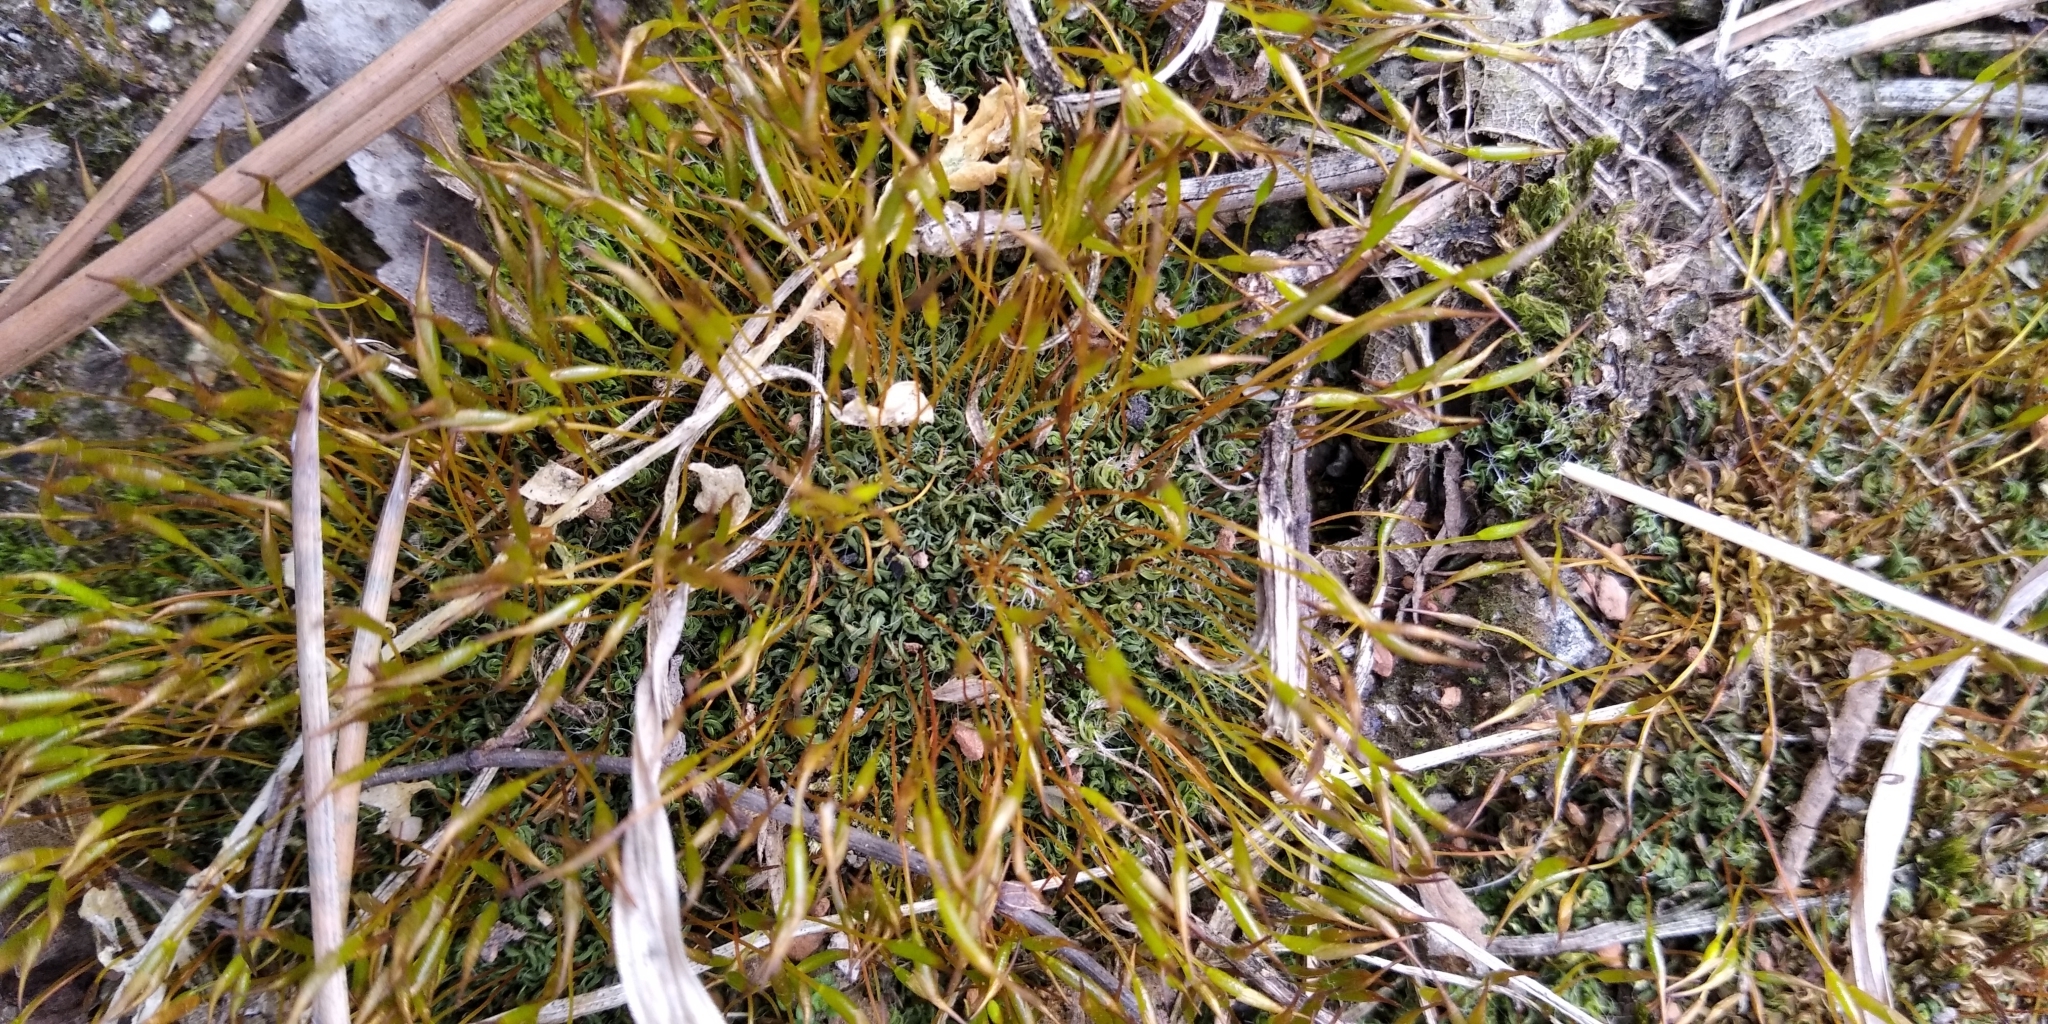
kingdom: Plantae
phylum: Bryophyta
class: Bryopsida
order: Pottiales
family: Pottiaceae
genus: Tortula
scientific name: Tortula muralis
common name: Wall screw-moss
